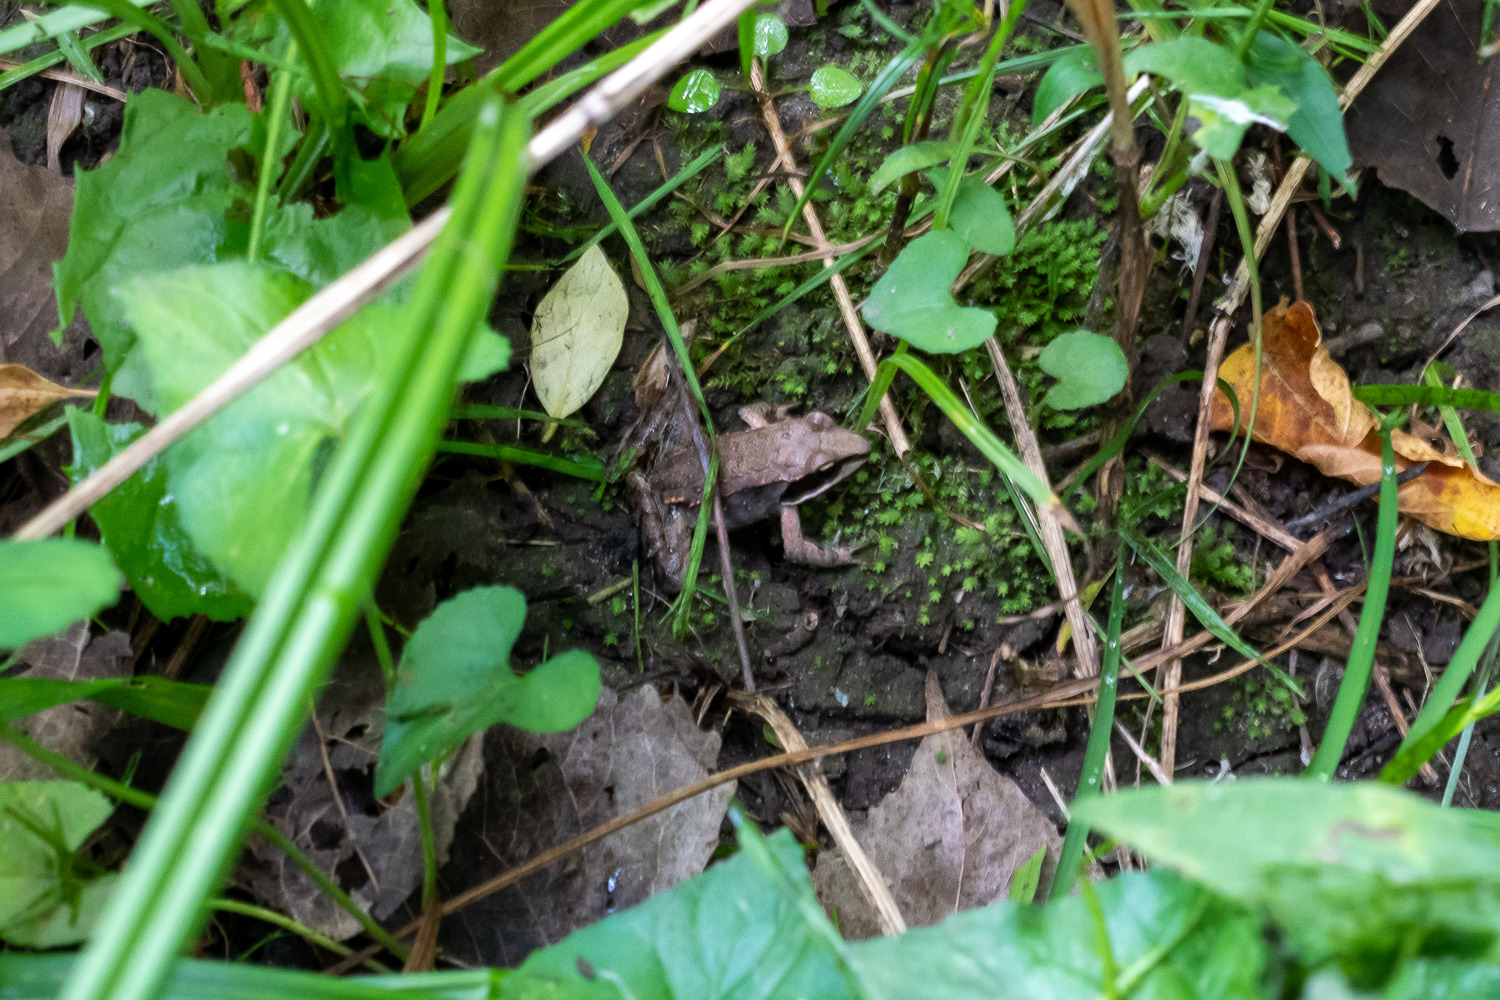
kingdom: Animalia
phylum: Chordata
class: Amphibia
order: Anura
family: Ranidae
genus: Lithobates
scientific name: Lithobates sylvaticus
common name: Wood frog
